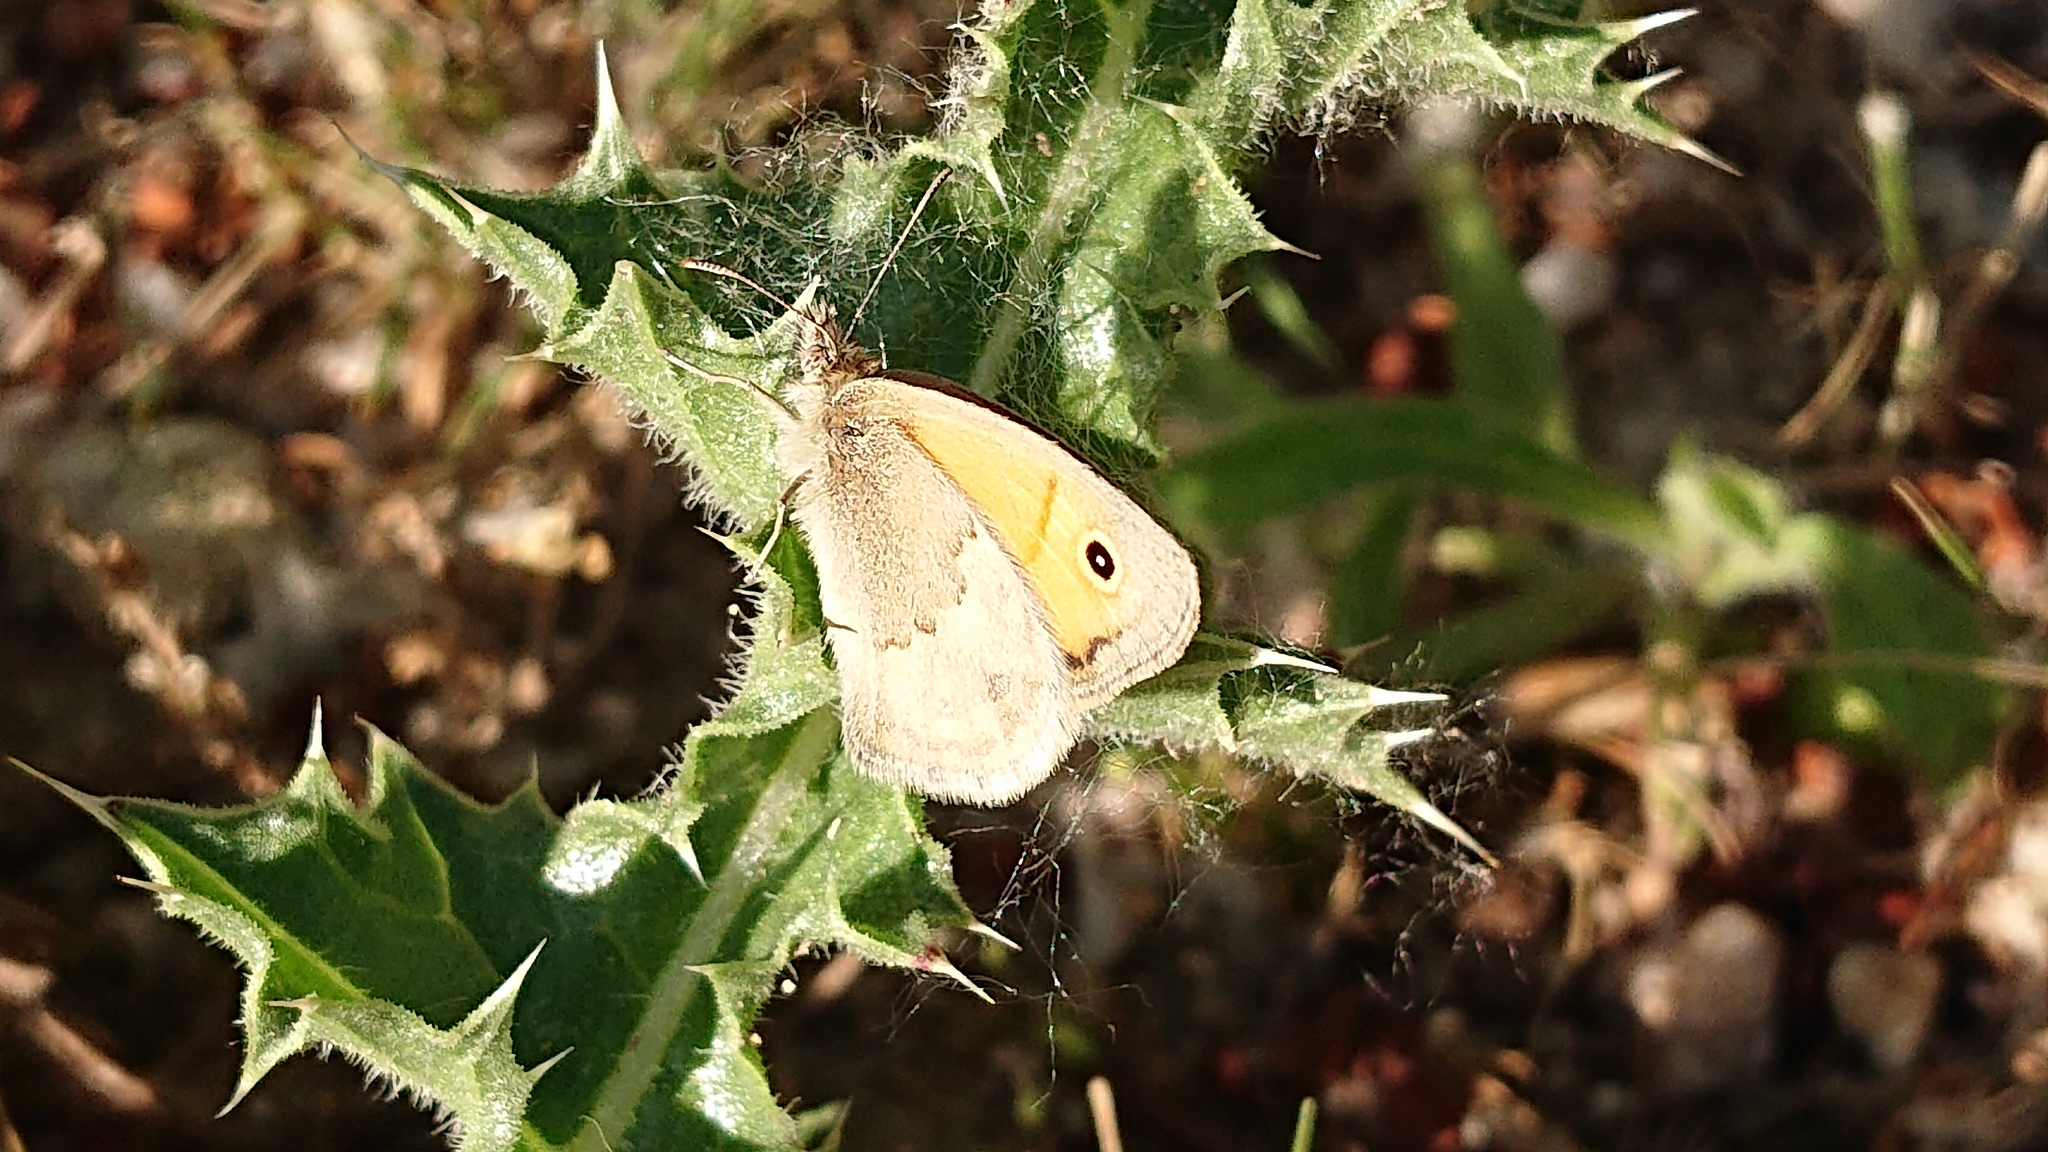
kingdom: Animalia
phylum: Arthropoda
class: Insecta
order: Lepidoptera
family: Nymphalidae
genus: Maniola
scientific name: Maniola jurtina
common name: Meadow brown
